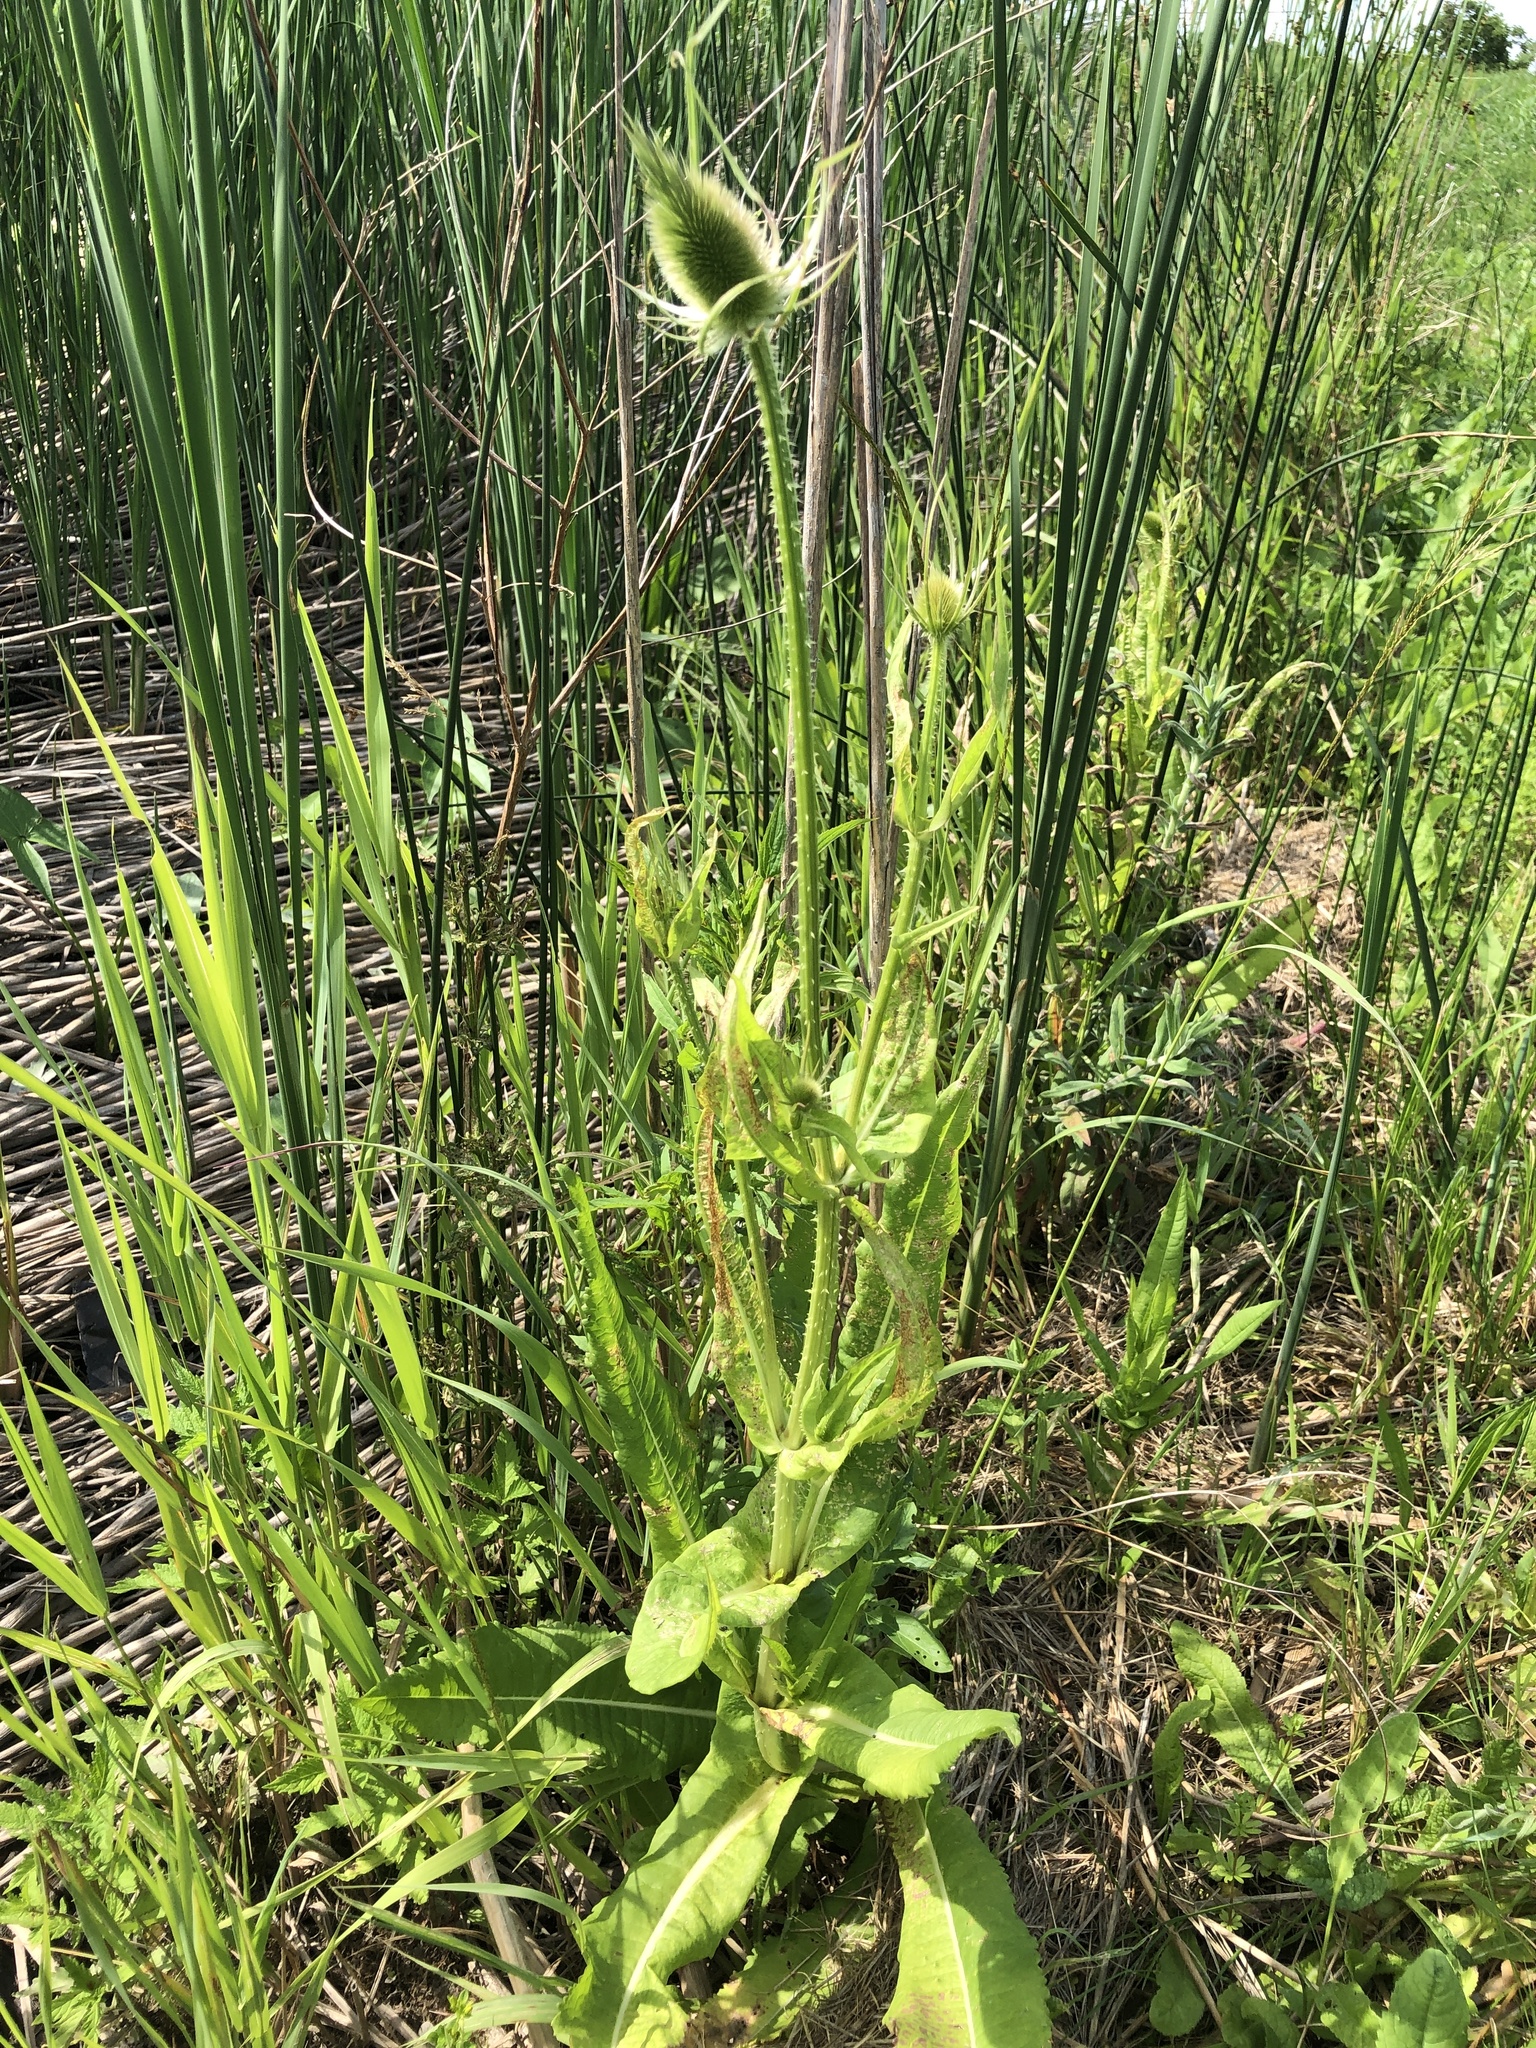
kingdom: Plantae
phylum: Tracheophyta
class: Magnoliopsida
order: Dipsacales
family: Caprifoliaceae
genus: Dipsacus
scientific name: Dipsacus fullonum
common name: Teasel
